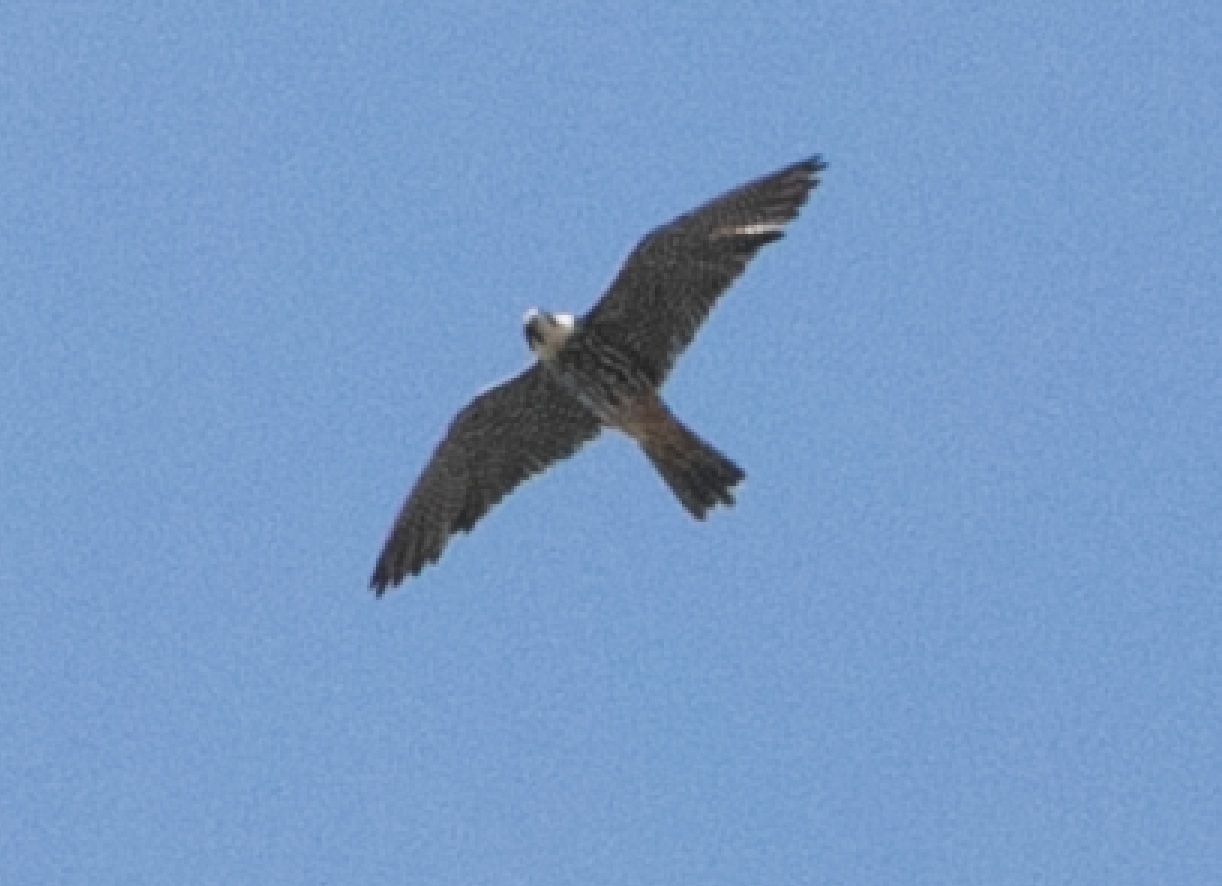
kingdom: Animalia
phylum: Chordata
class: Aves
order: Falconiformes
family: Falconidae
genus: Falco
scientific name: Falco subbuteo
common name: Eurasian hobby
